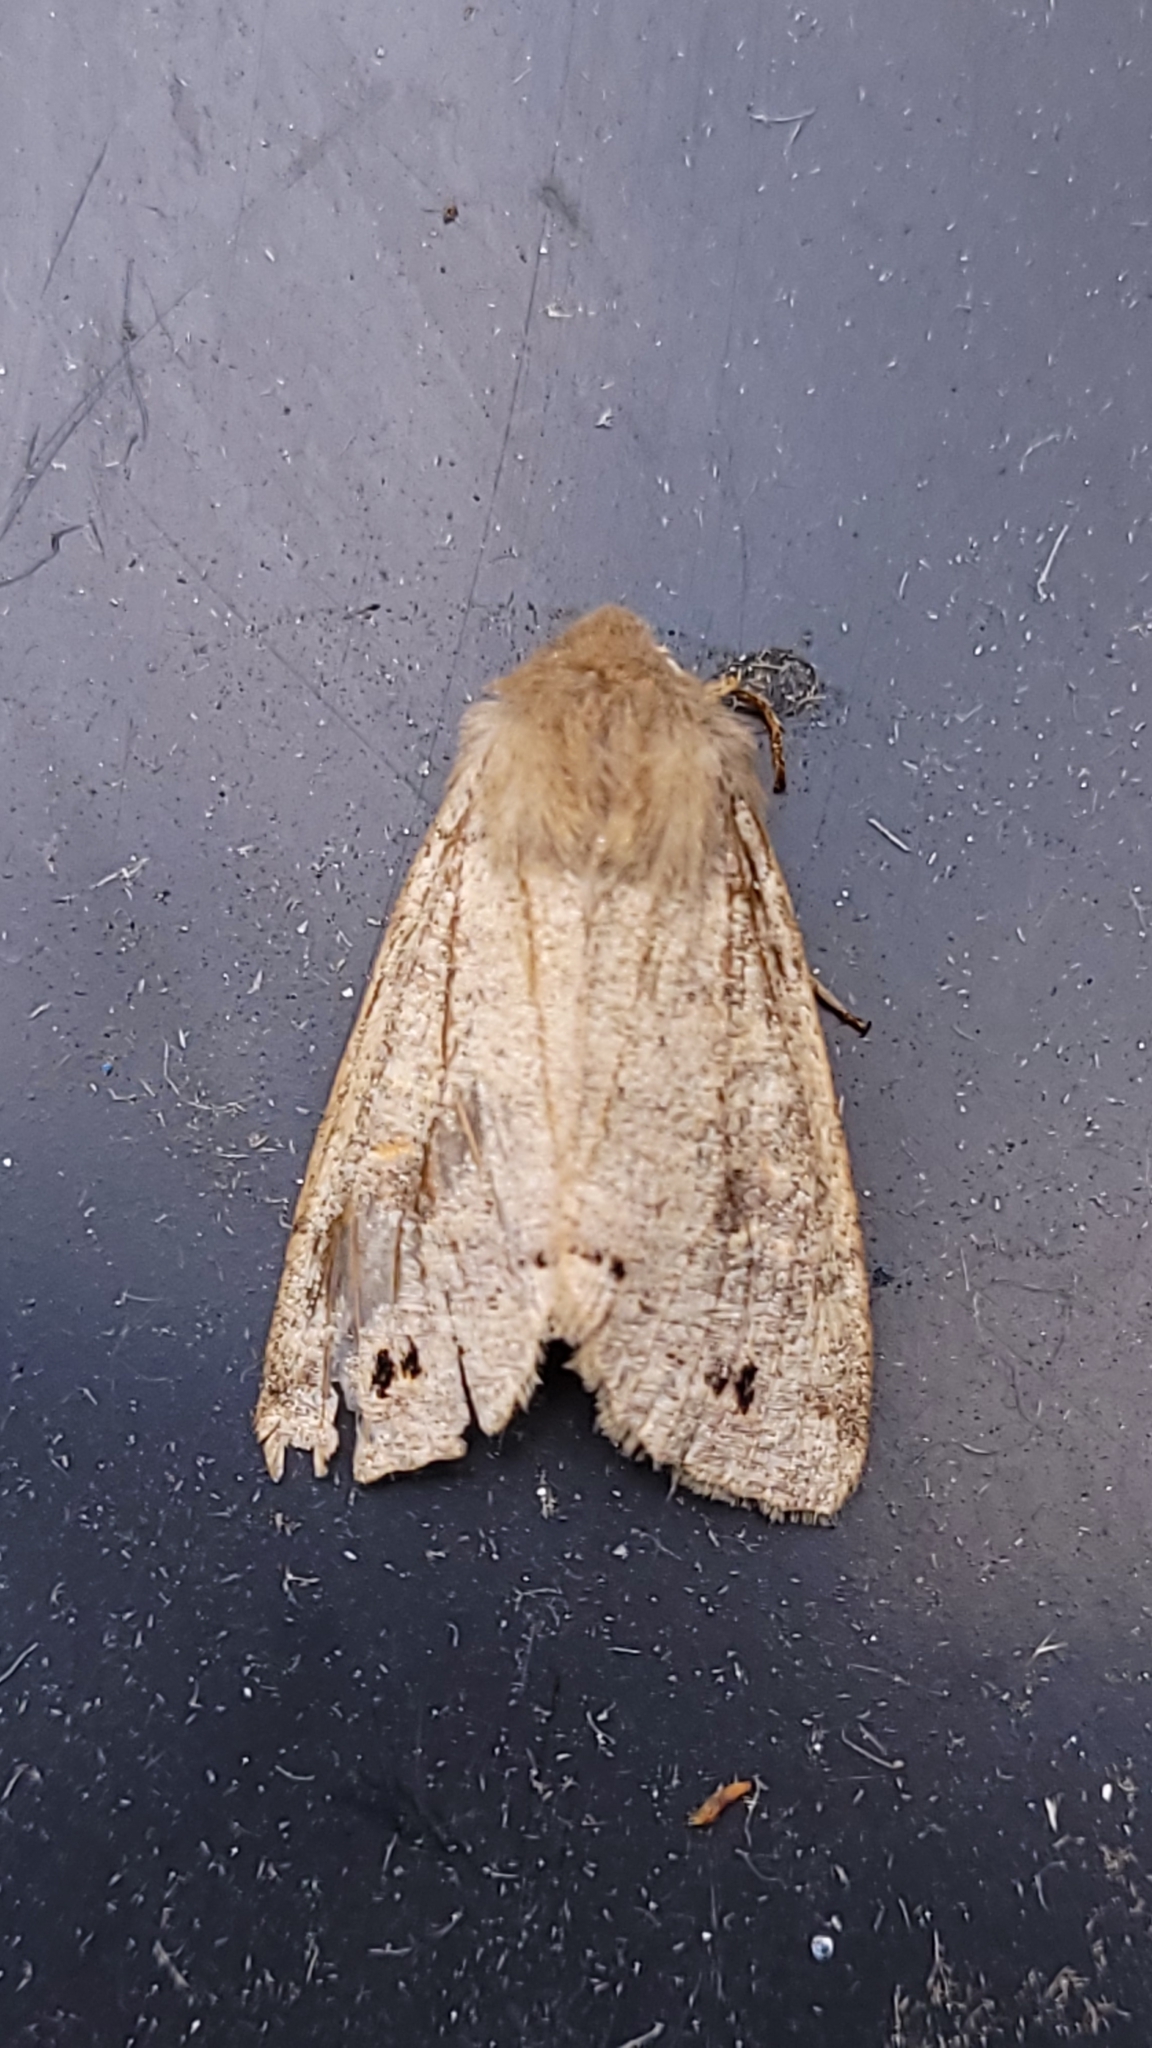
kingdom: Animalia
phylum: Arthropoda
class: Insecta
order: Lepidoptera
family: Noctuidae
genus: Anorthoa
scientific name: Anorthoa munda
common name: Twin-spotted quaker
